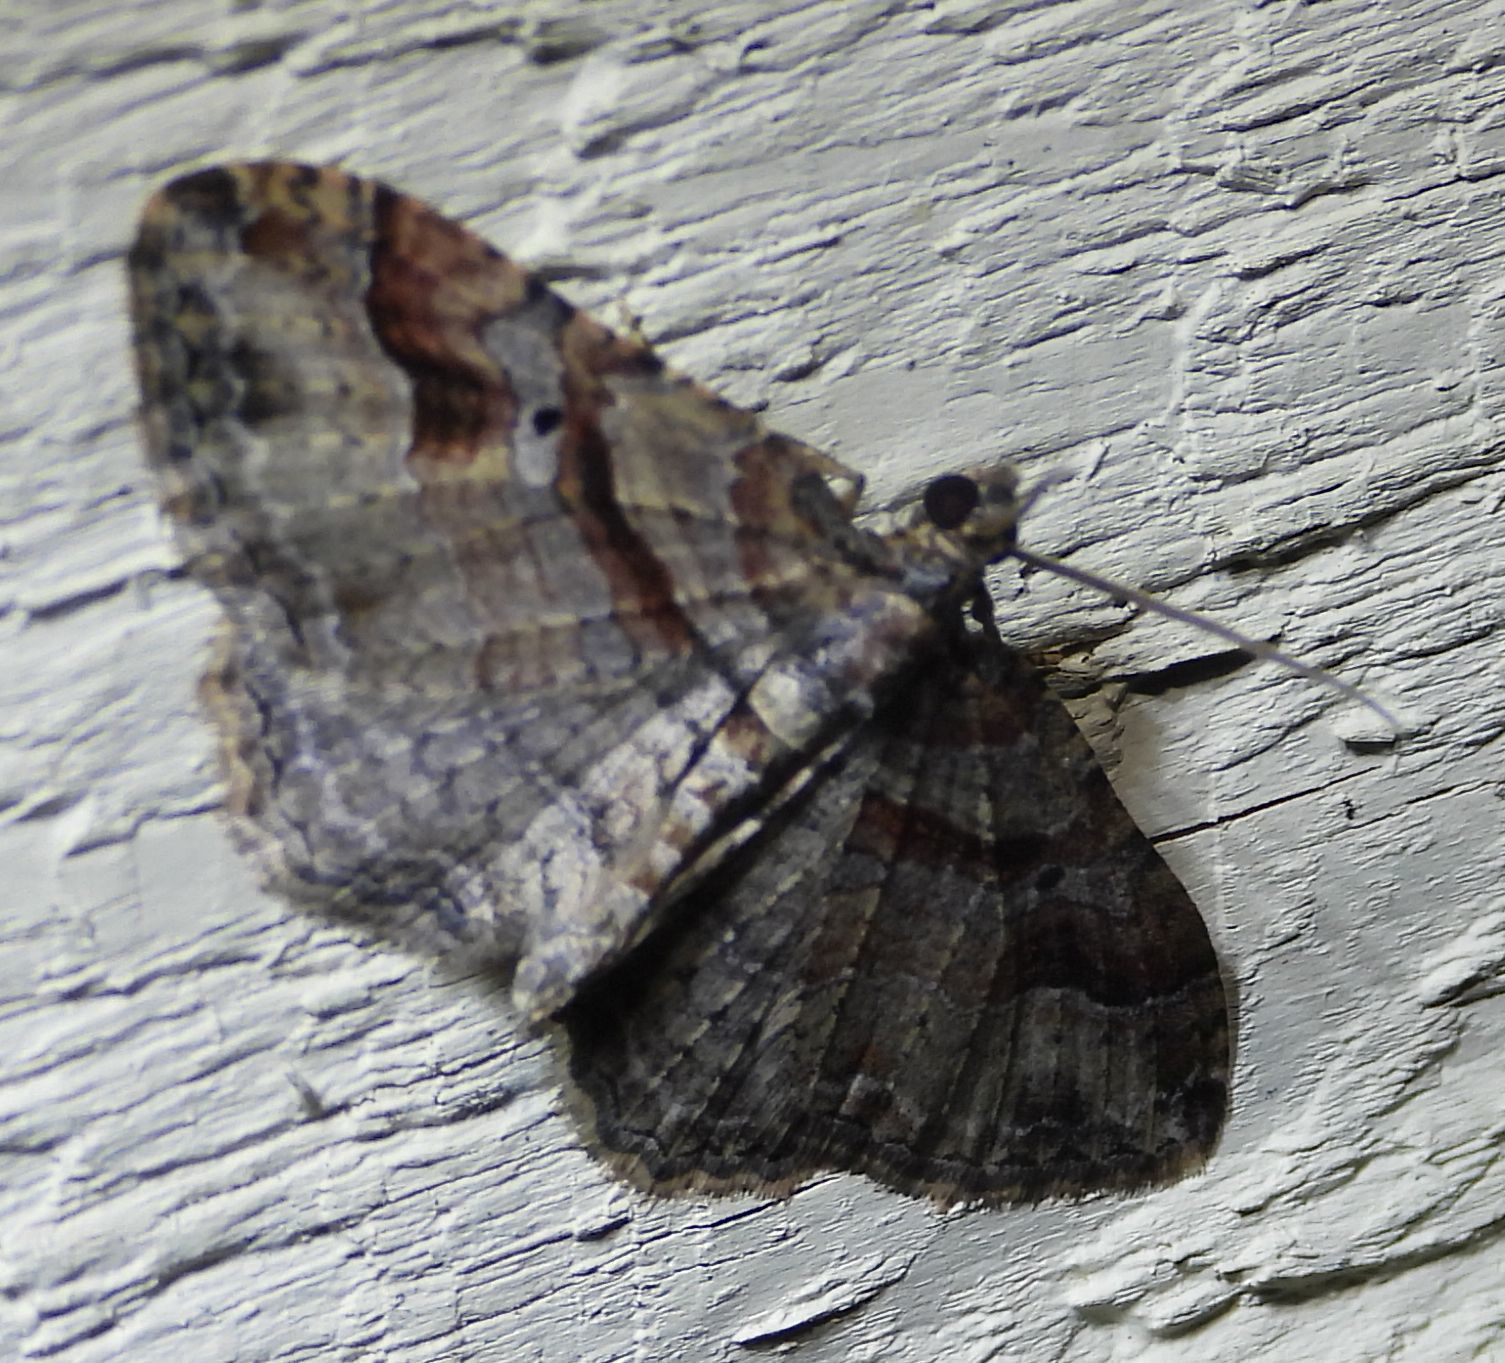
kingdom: Animalia
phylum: Arthropoda
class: Insecta
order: Lepidoptera
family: Geometridae
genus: Costaconvexa
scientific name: Costaconvexa centrostrigaria
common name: Bent-line carpet
